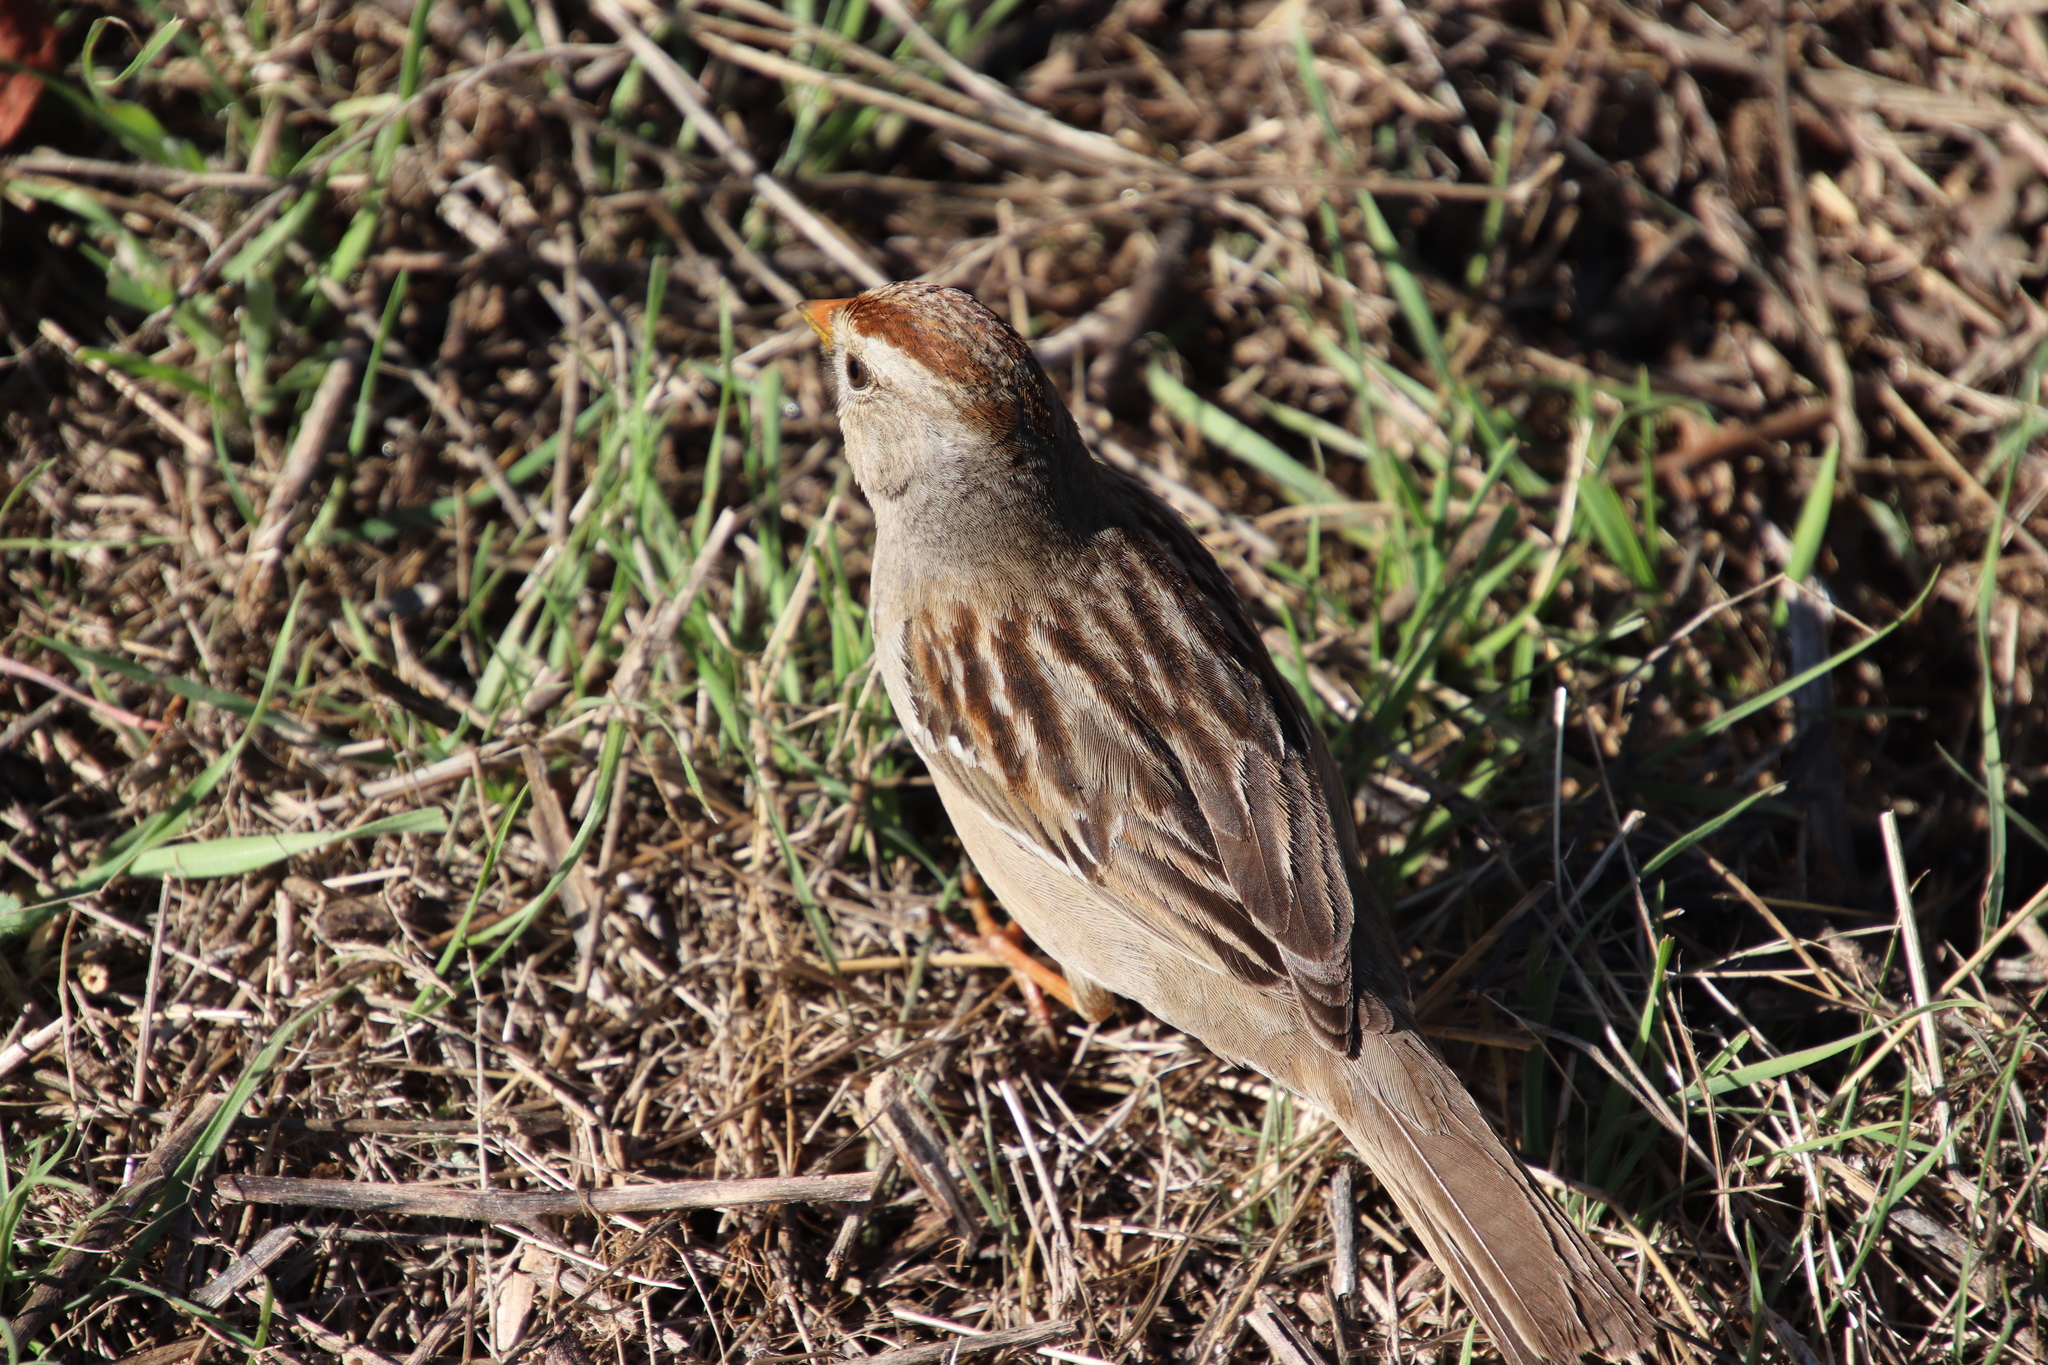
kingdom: Animalia
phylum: Chordata
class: Aves
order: Passeriformes
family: Passerellidae
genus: Zonotrichia
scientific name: Zonotrichia leucophrys
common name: White-crowned sparrow
